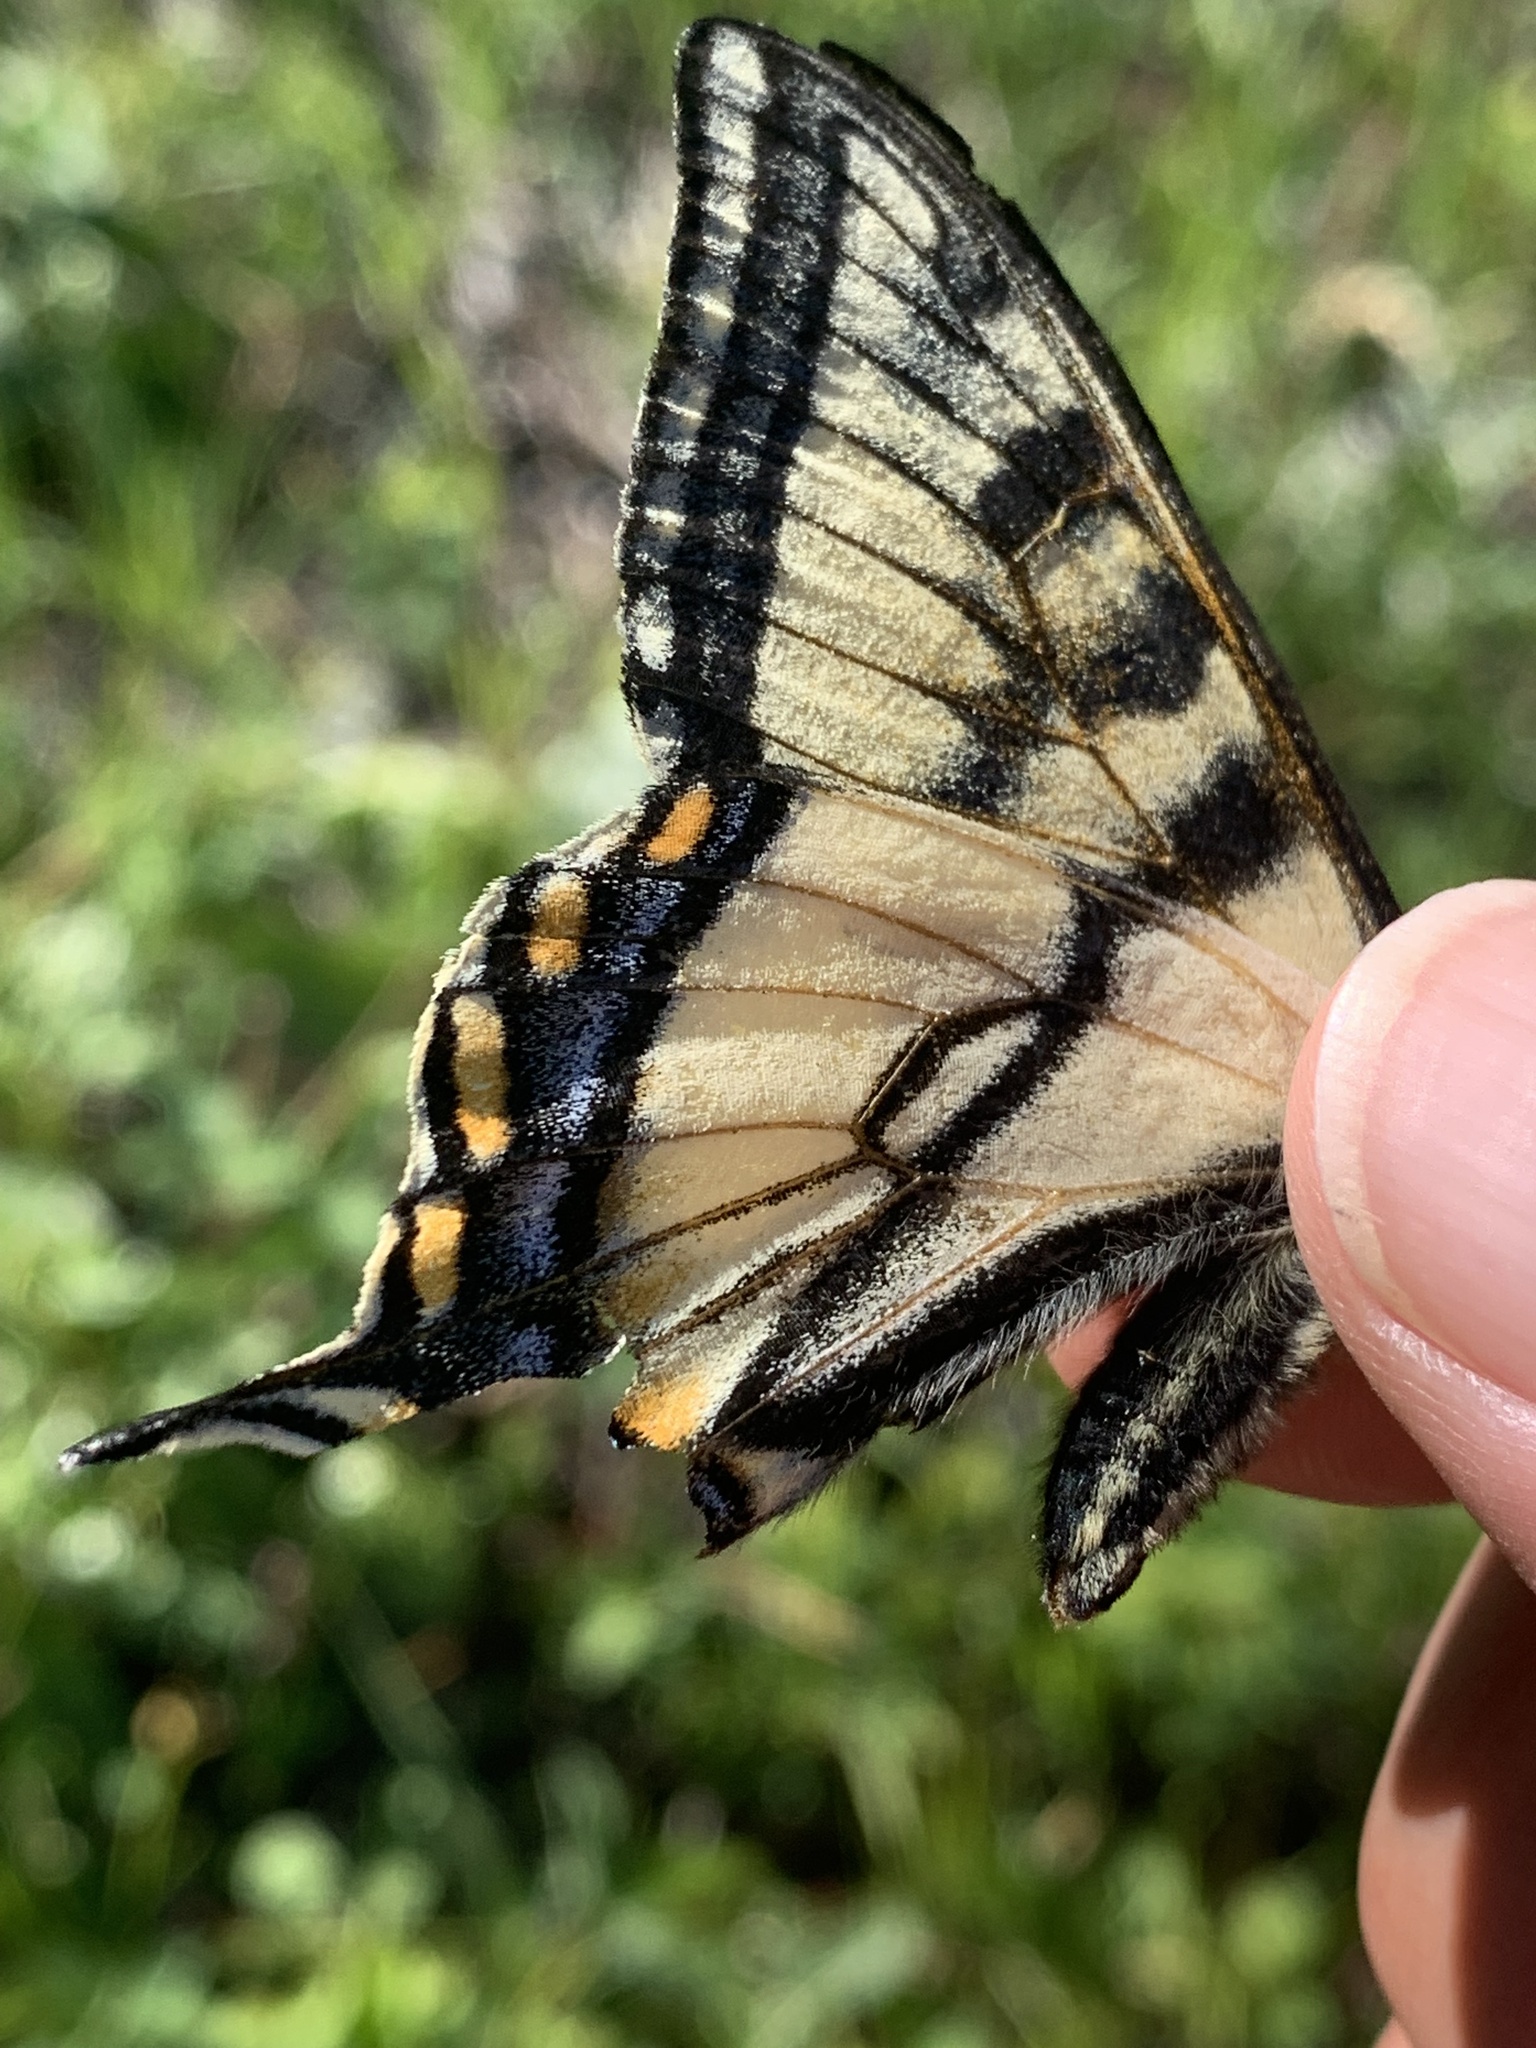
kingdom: Animalia
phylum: Arthropoda
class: Insecta
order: Lepidoptera
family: Papilionidae
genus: Papilio
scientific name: Papilio canadensis
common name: Canadian tiger swallowtail
